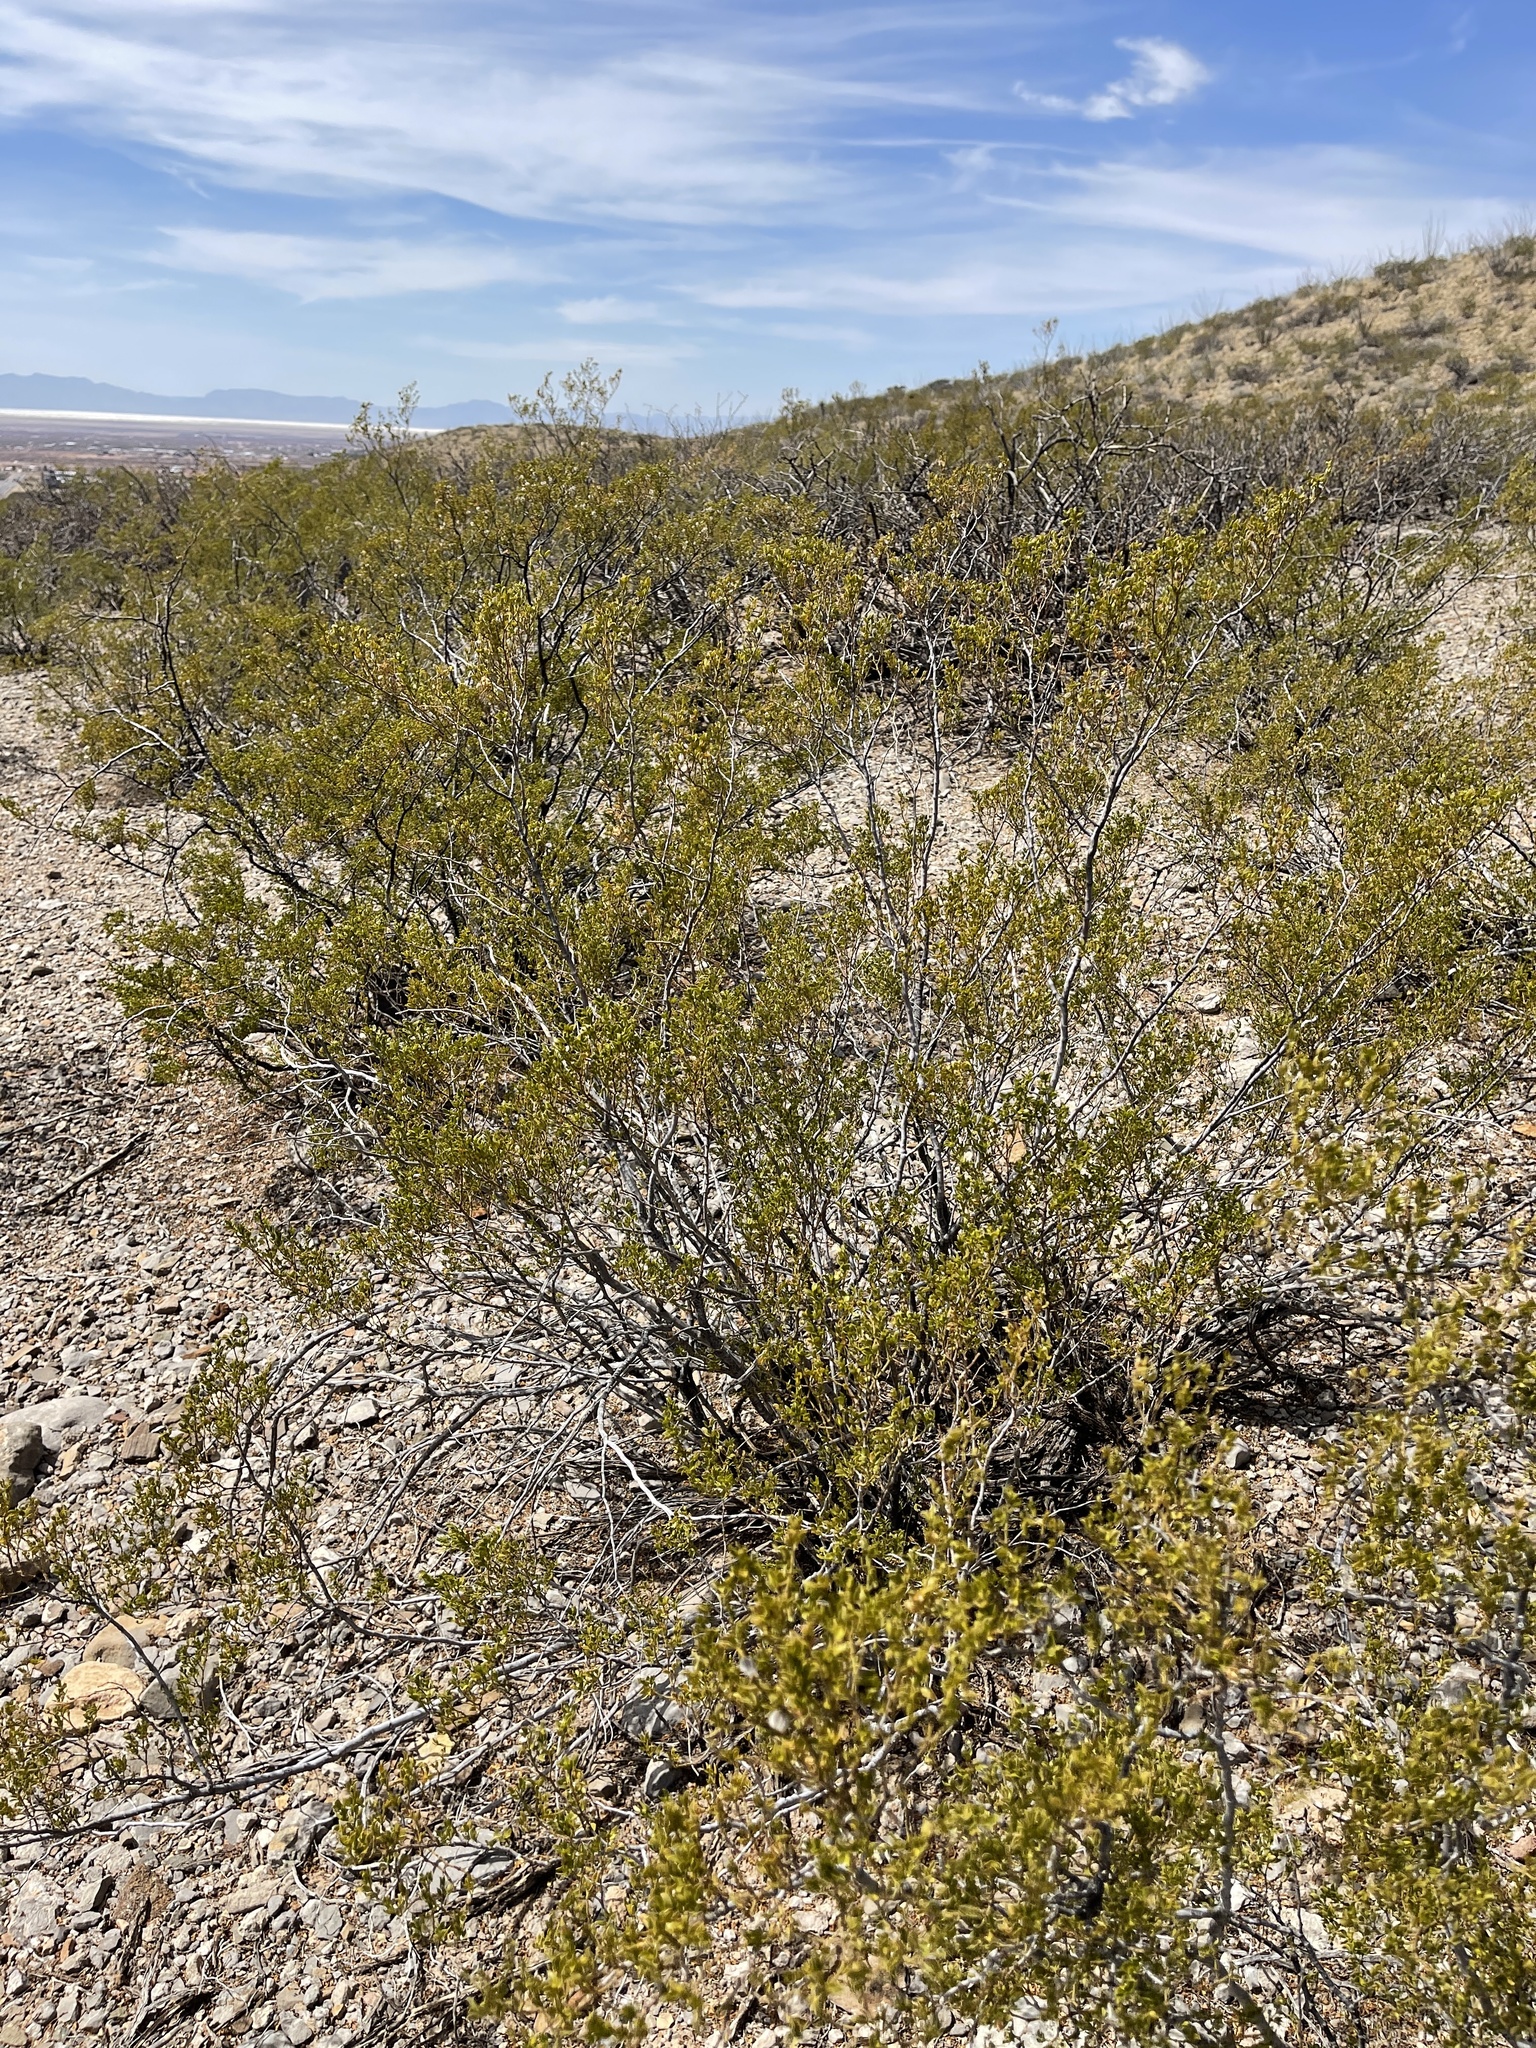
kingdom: Plantae
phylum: Tracheophyta
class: Magnoliopsida
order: Zygophyllales
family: Zygophyllaceae
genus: Larrea
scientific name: Larrea tridentata
